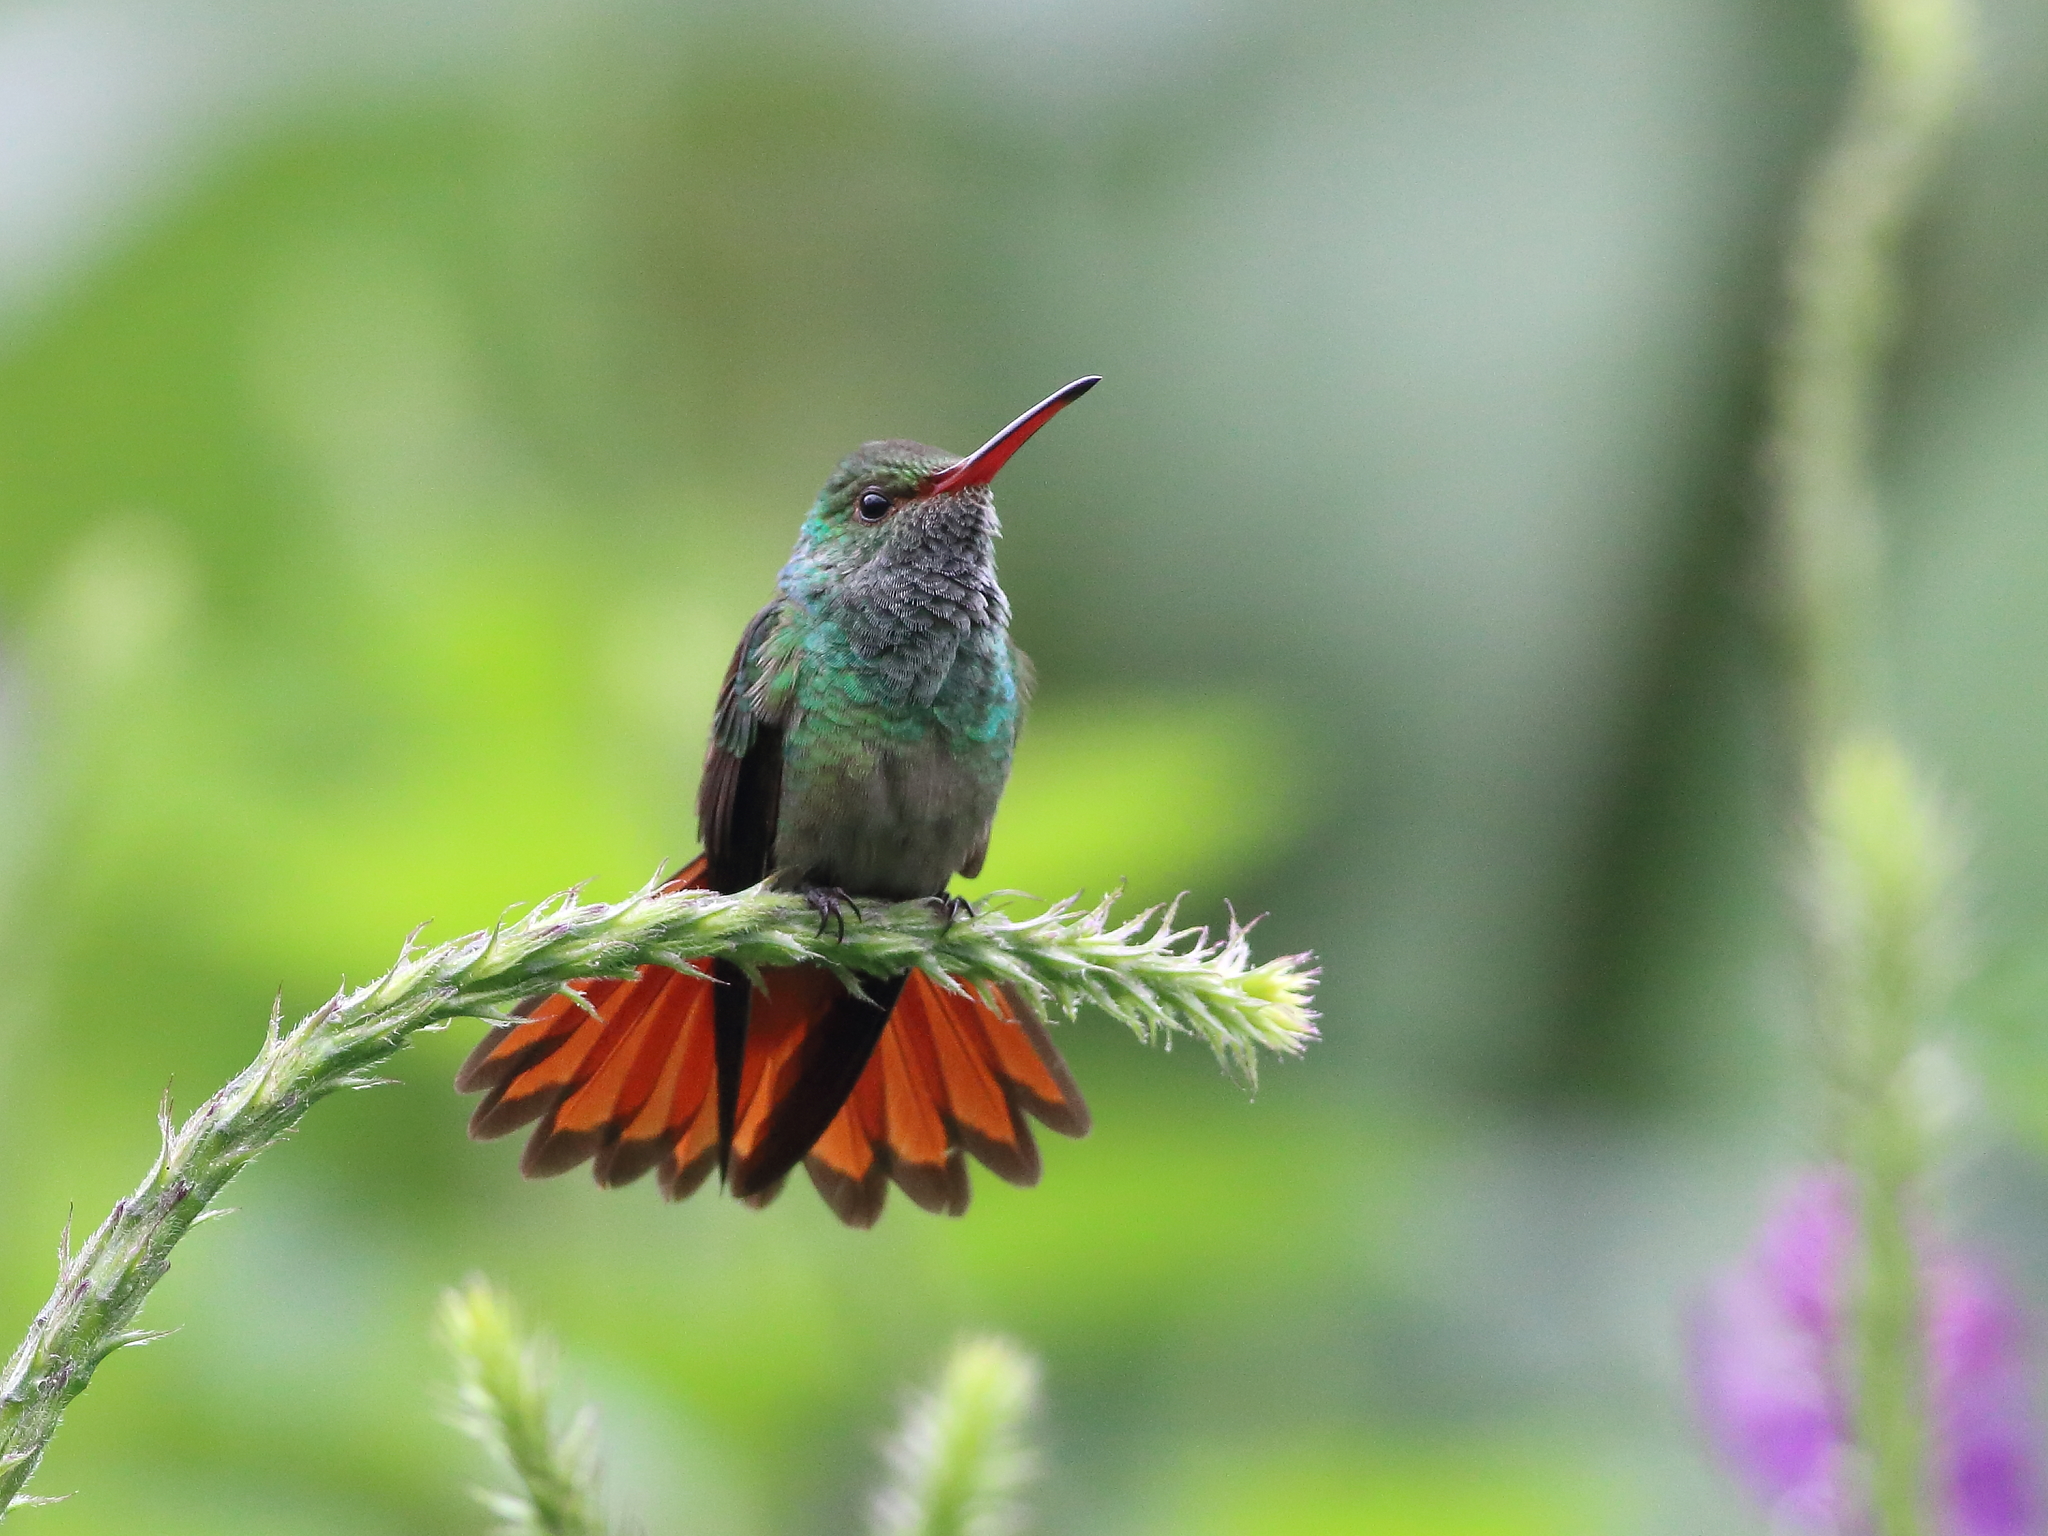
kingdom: Animalia
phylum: Chordata
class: Aves
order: Apodiformes
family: Trochilidae
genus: Amazilia
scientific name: Amazilia tzacatl
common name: Rufous-tailed hummingbird
